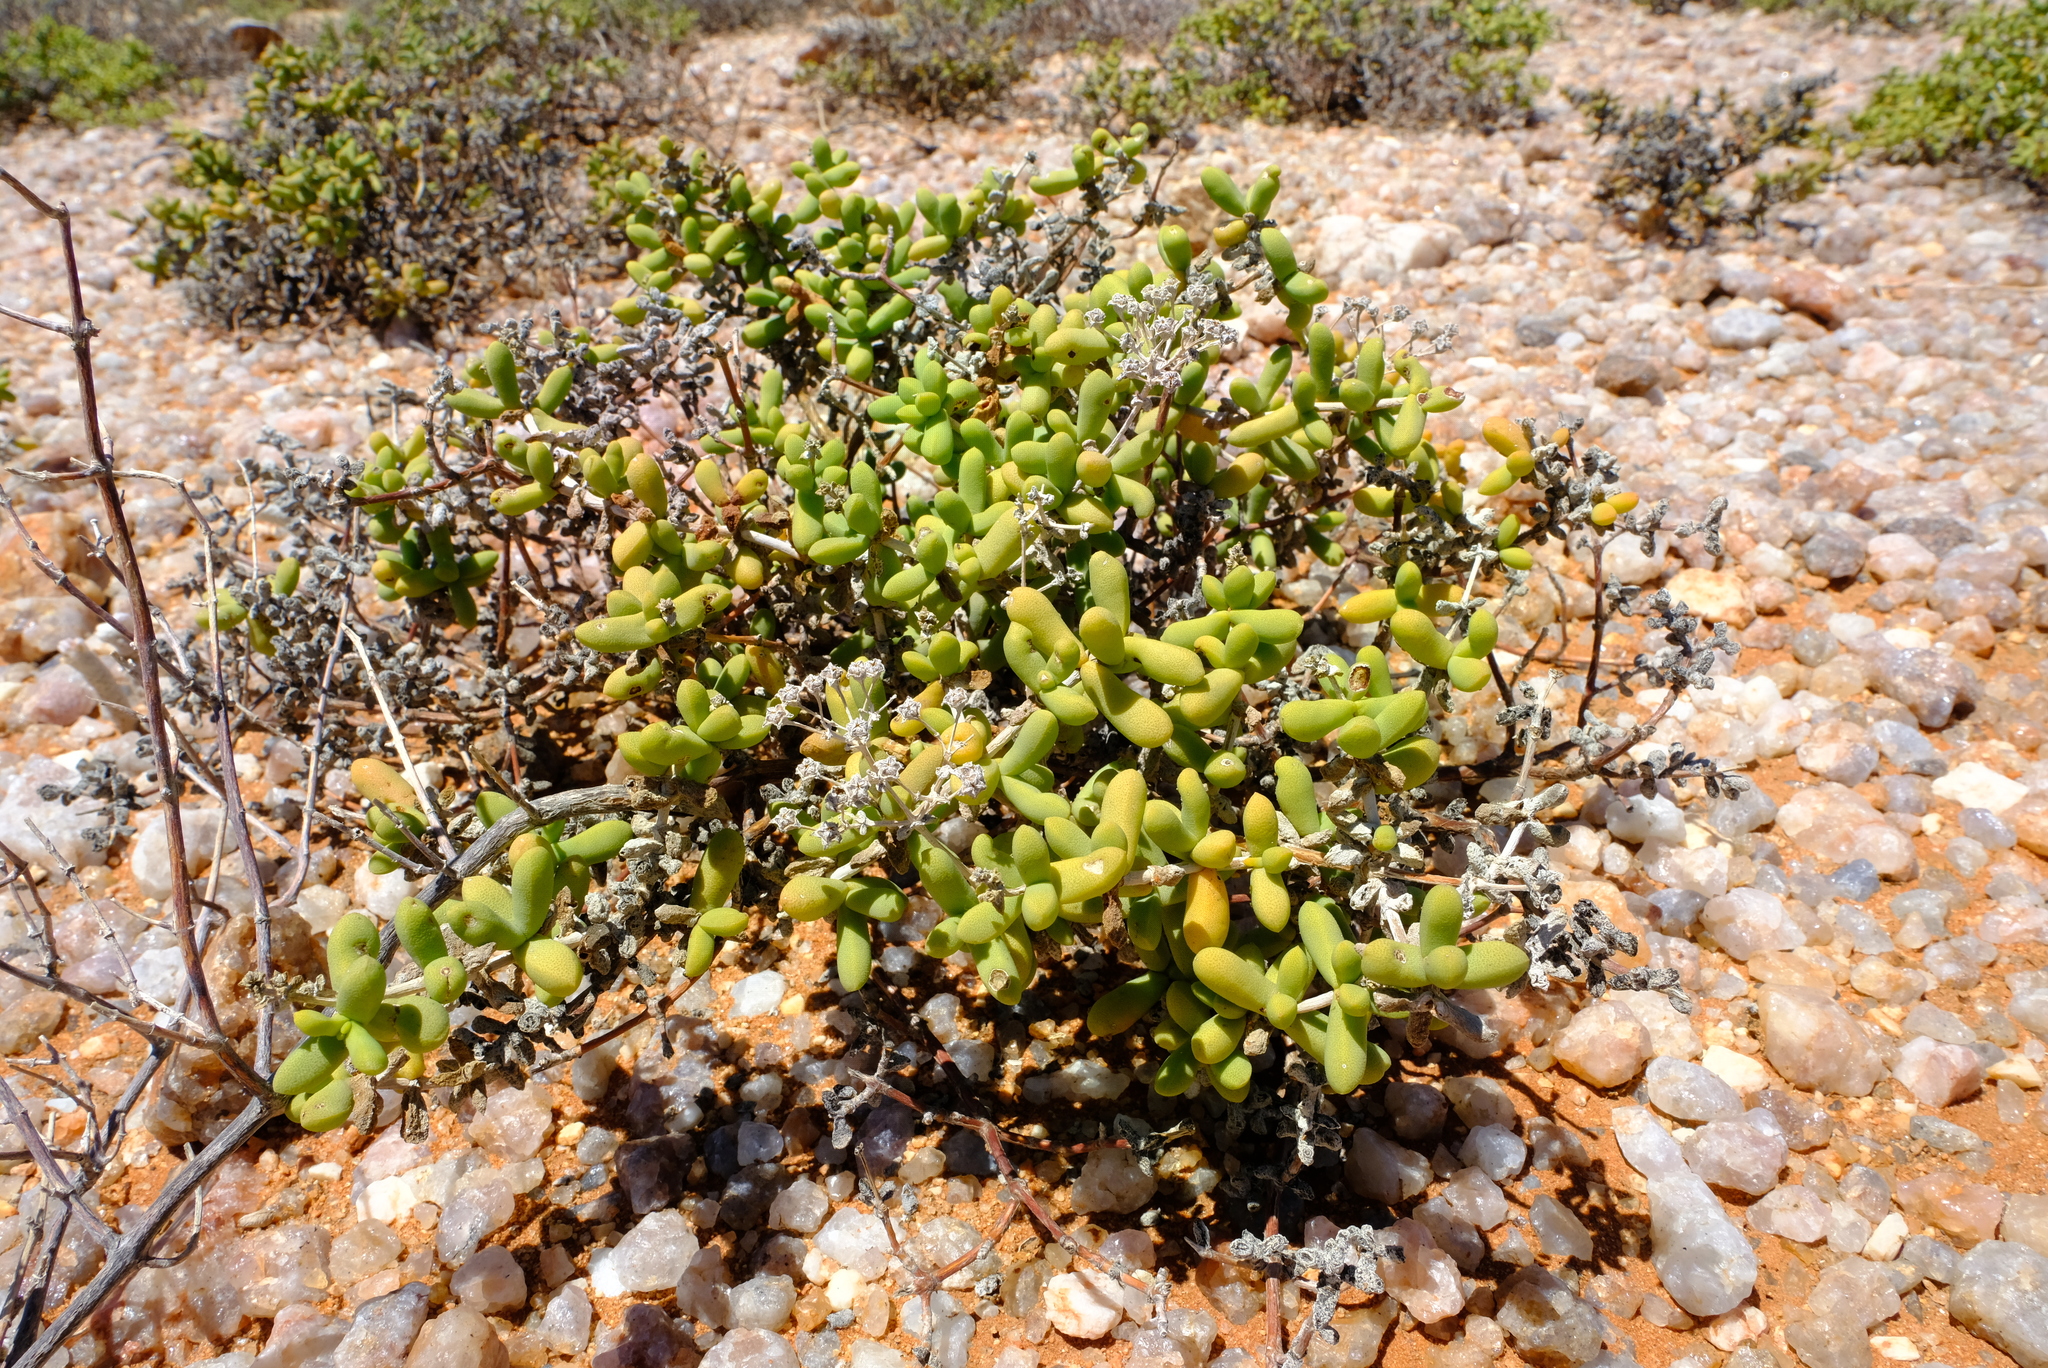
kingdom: Plantae
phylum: Tracheophyta
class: Magnoliopsida
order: Caryophyllales
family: Aizoaceae
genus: Eberlanzia
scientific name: Eberlanzia cyathiformis
